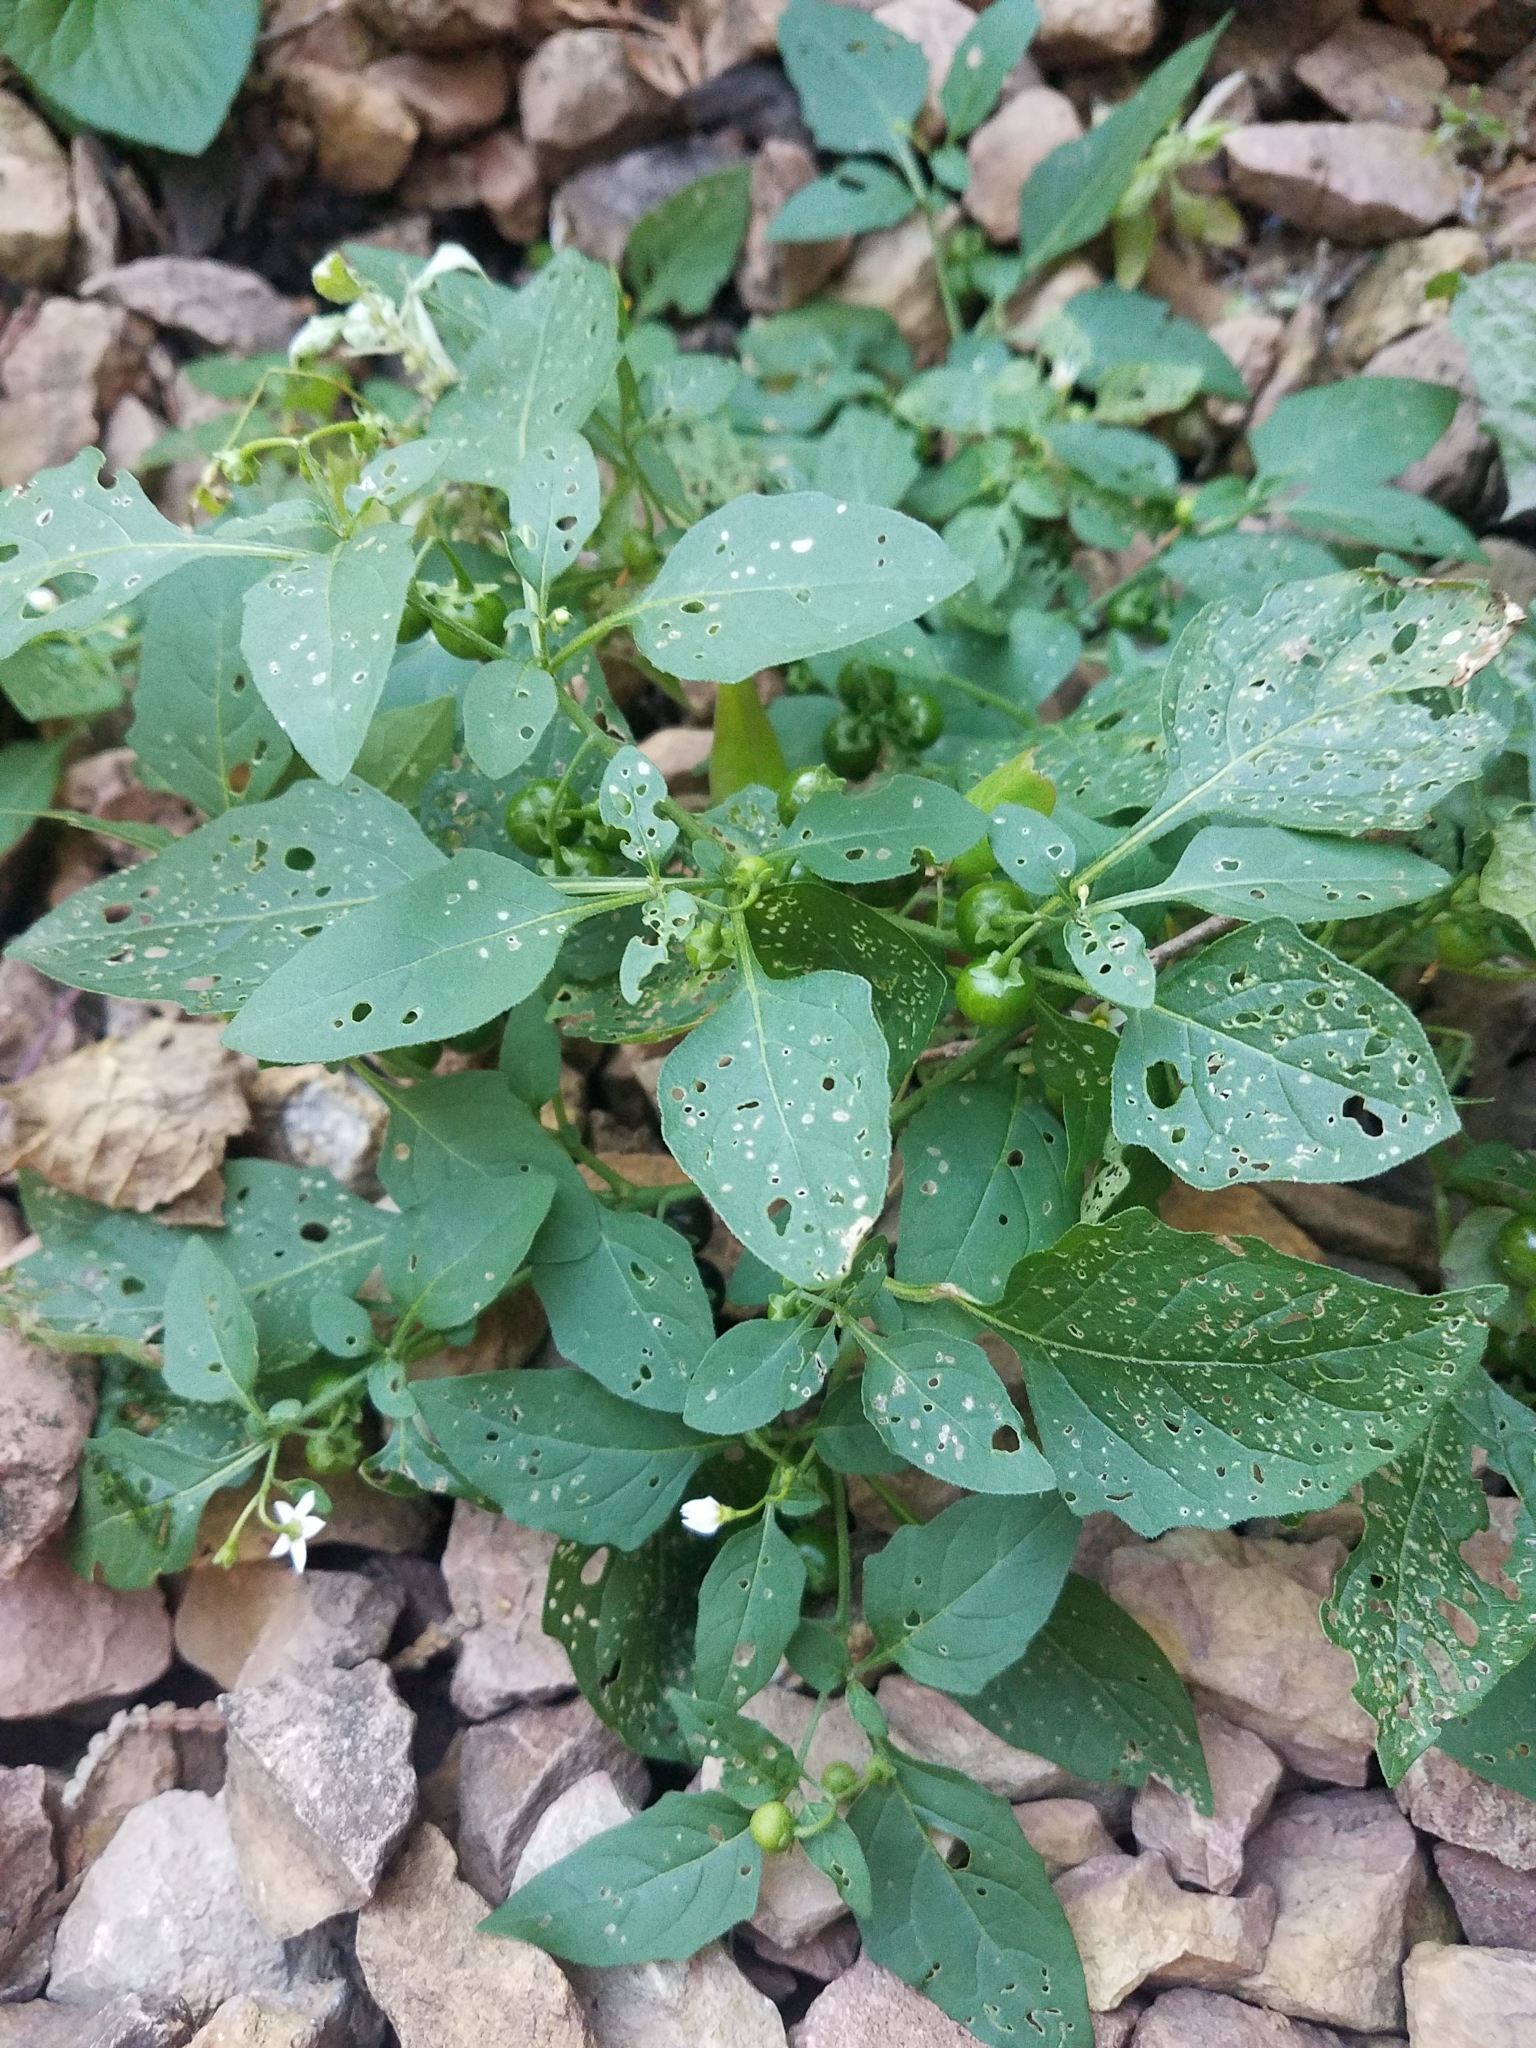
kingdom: Plantae
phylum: Tracheophyta
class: Magnoliopsida
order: Solanales
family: Solanaceae
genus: Solanum
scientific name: Solanum emulans
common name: Eastern black nightshade
